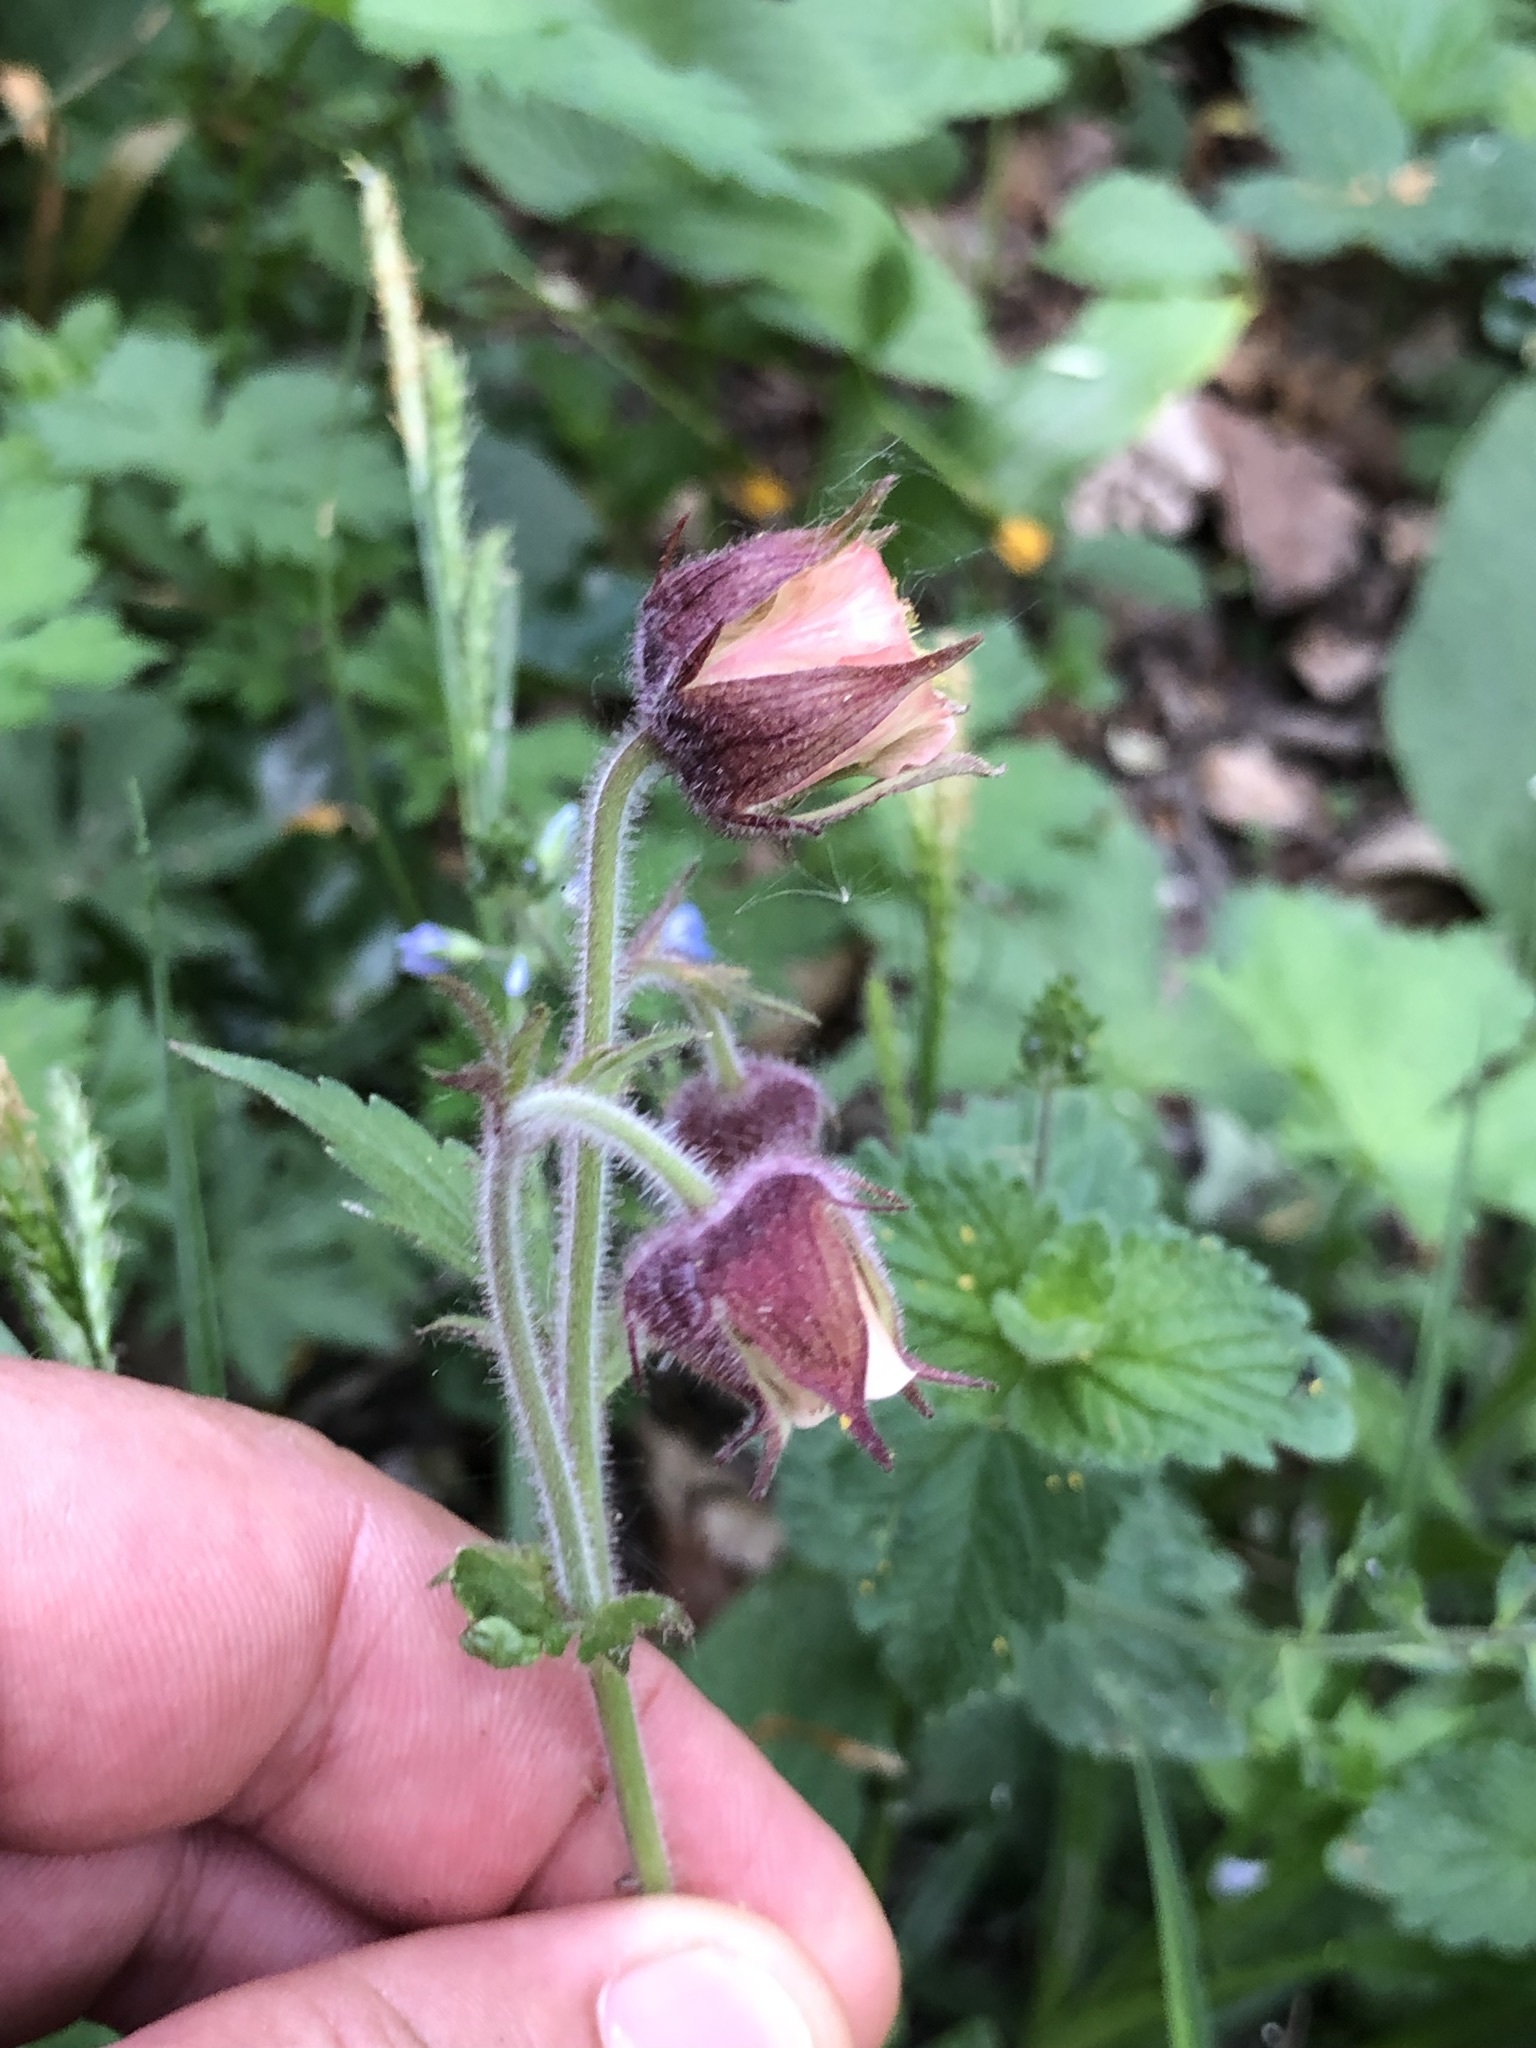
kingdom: Plantae
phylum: Tracheophyta
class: Magnoliopsida
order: Rosales
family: Rosaceae
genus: Geum
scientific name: Geum rivale
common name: Water avens
